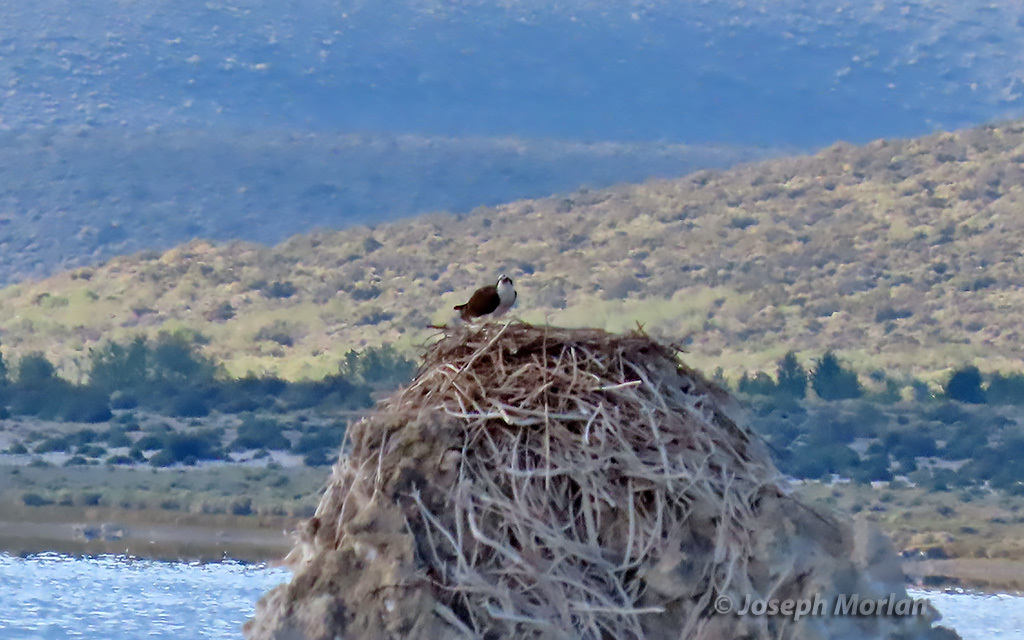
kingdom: Animalia
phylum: Chordata
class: Aves
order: Accipitriformes
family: Pandionidae
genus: Pandion
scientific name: Pandion haliaetus
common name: Osprey
